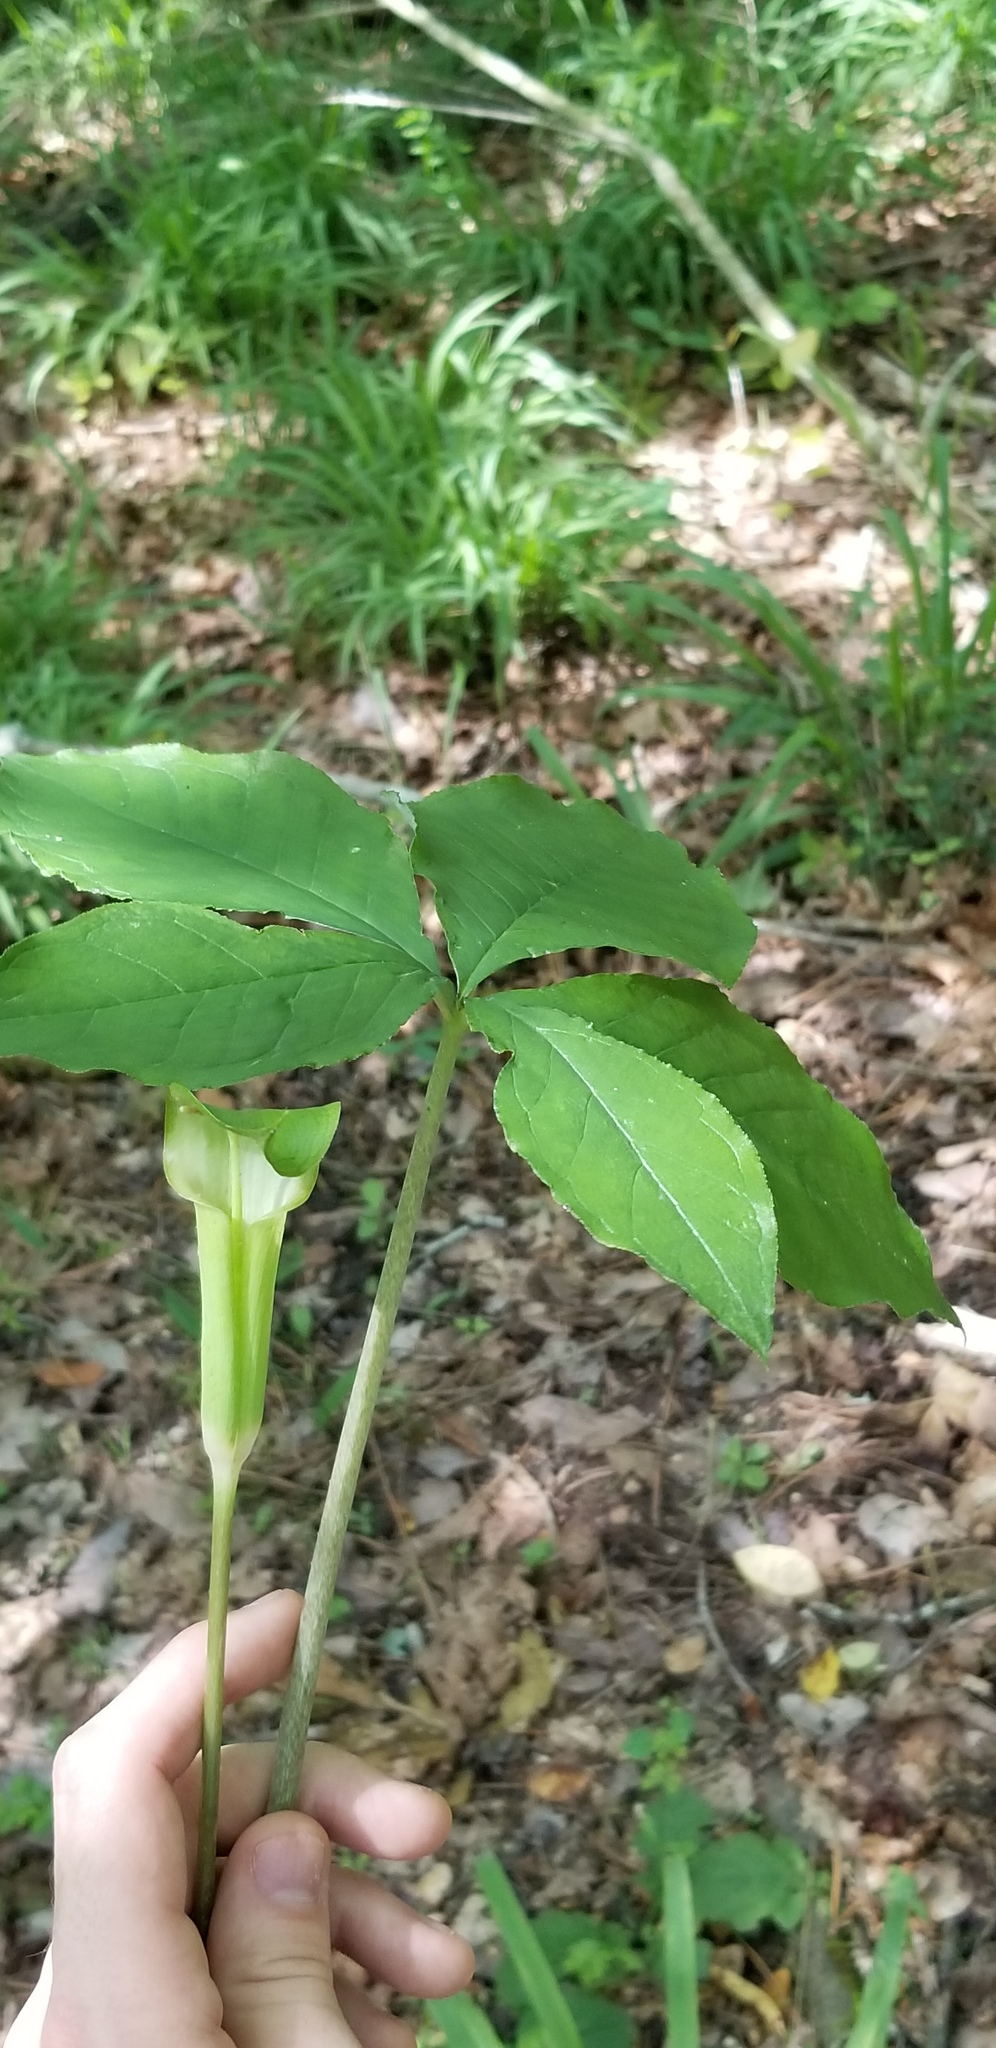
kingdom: Plantae
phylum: Tracheophyta
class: Liliopsida
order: Alismatales
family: Araceae
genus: Arisaema
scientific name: Arisaema quinatum
